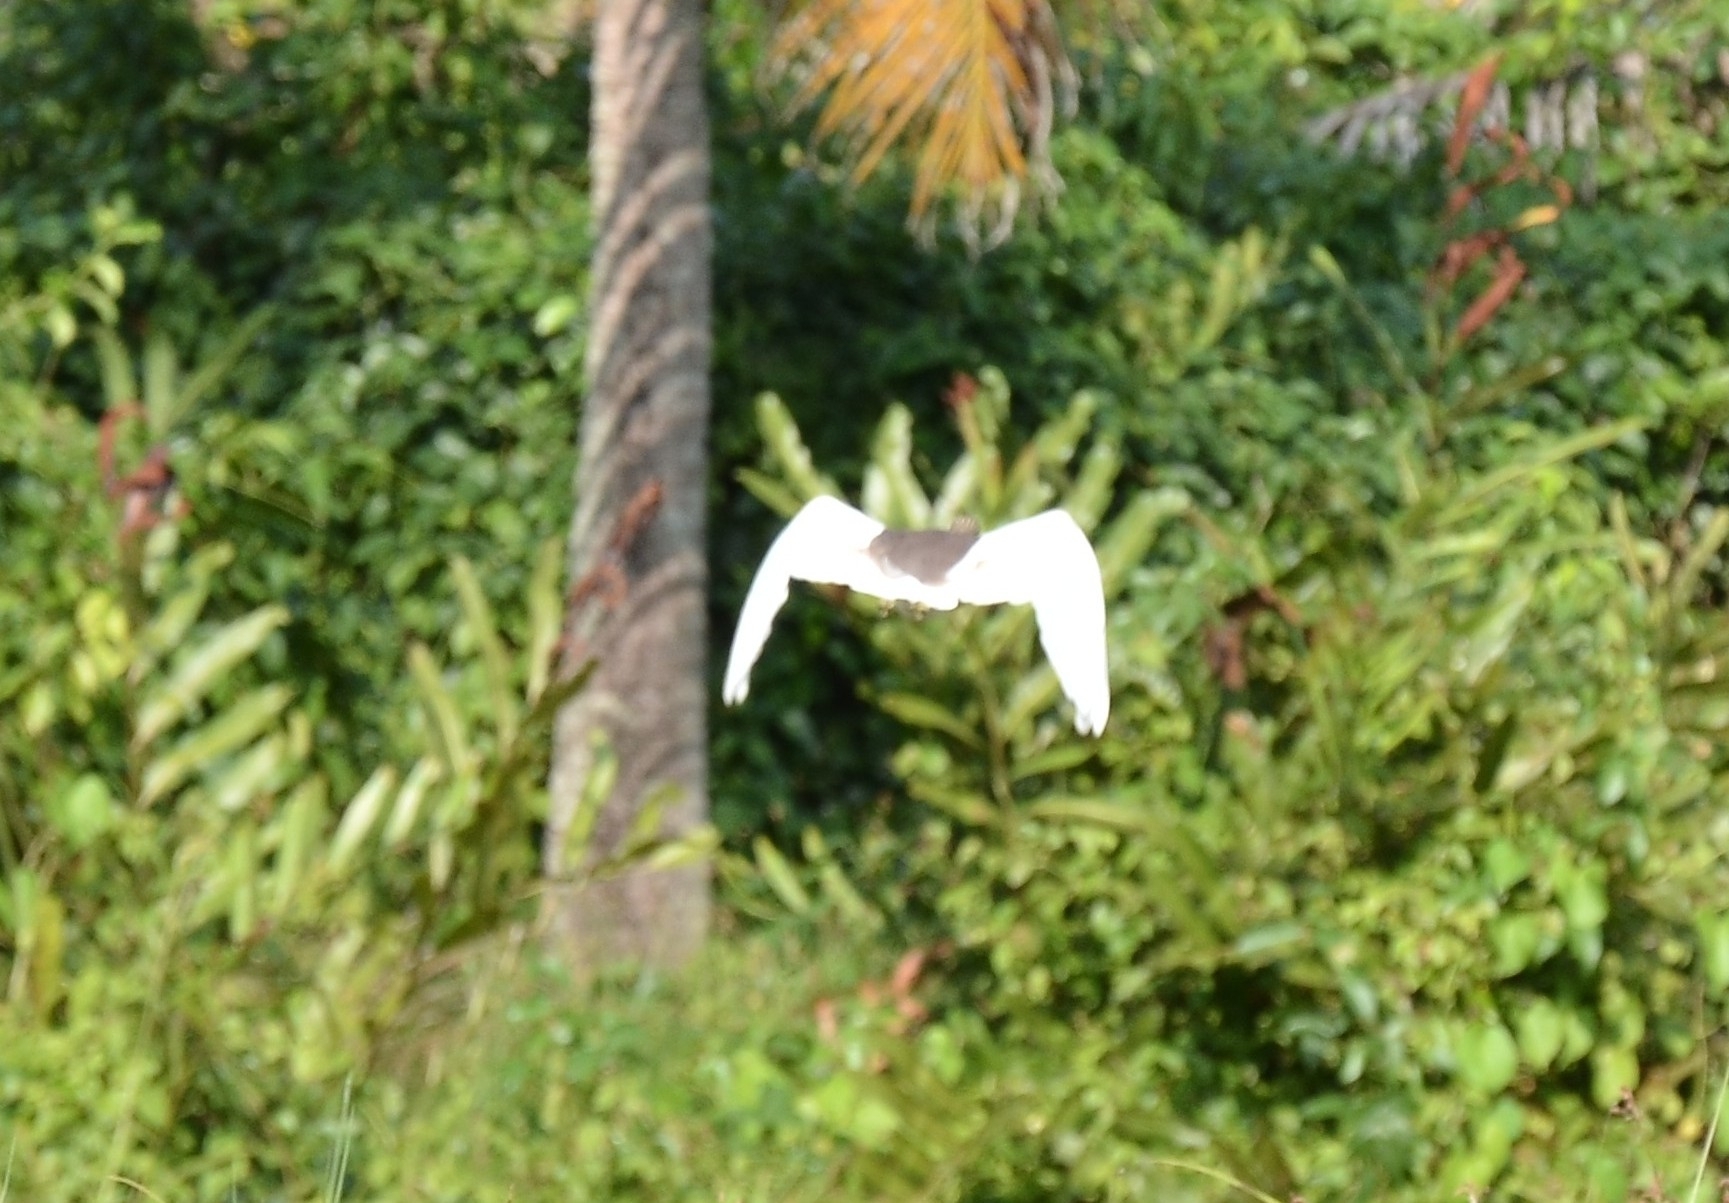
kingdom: Animalia
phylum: Chordata
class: Aves
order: Pelecaniformes
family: Ardeidae
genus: Ardeola
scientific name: Ardeola grayii
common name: Indian pond heron
